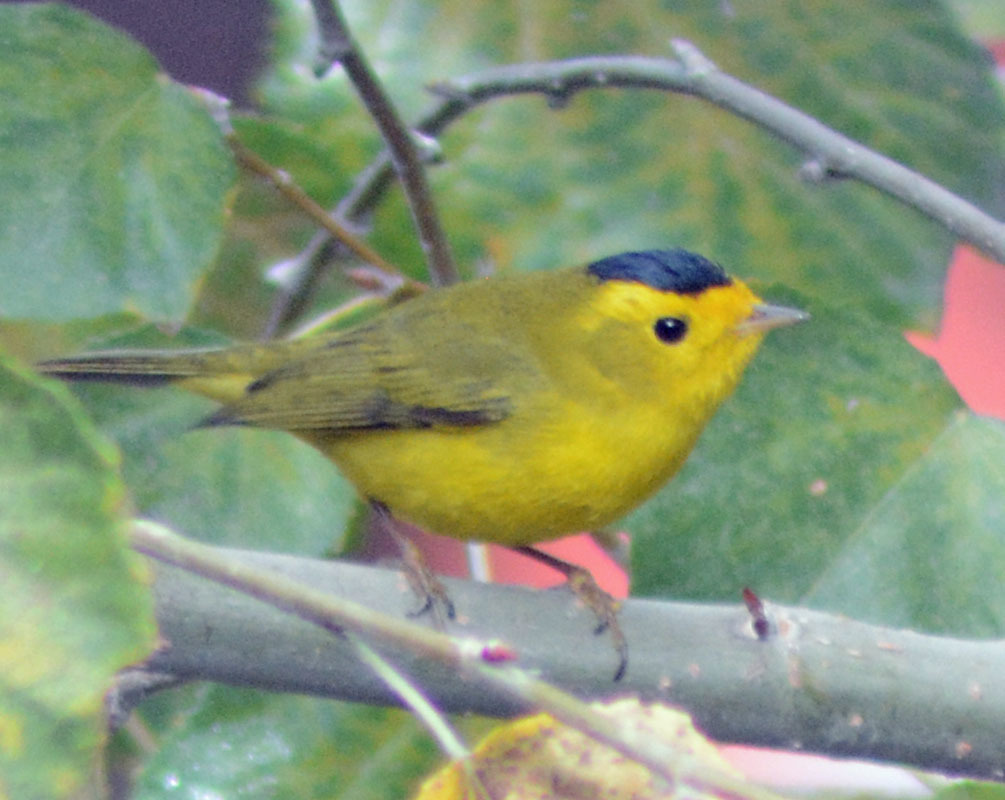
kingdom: Animalia
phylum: Chordata
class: Aves
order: Passeriformes
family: Parulidae
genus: Cardellina
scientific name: Cardellina pusilla
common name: Wilson's warbler
